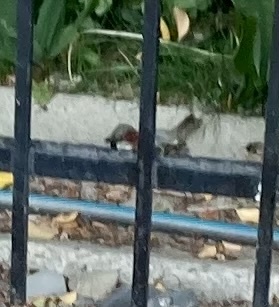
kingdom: Animalia
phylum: Chordata
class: Aves
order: Passeriformes
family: Passeridae
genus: Passer
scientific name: Passer domesticus
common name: House sparrow
